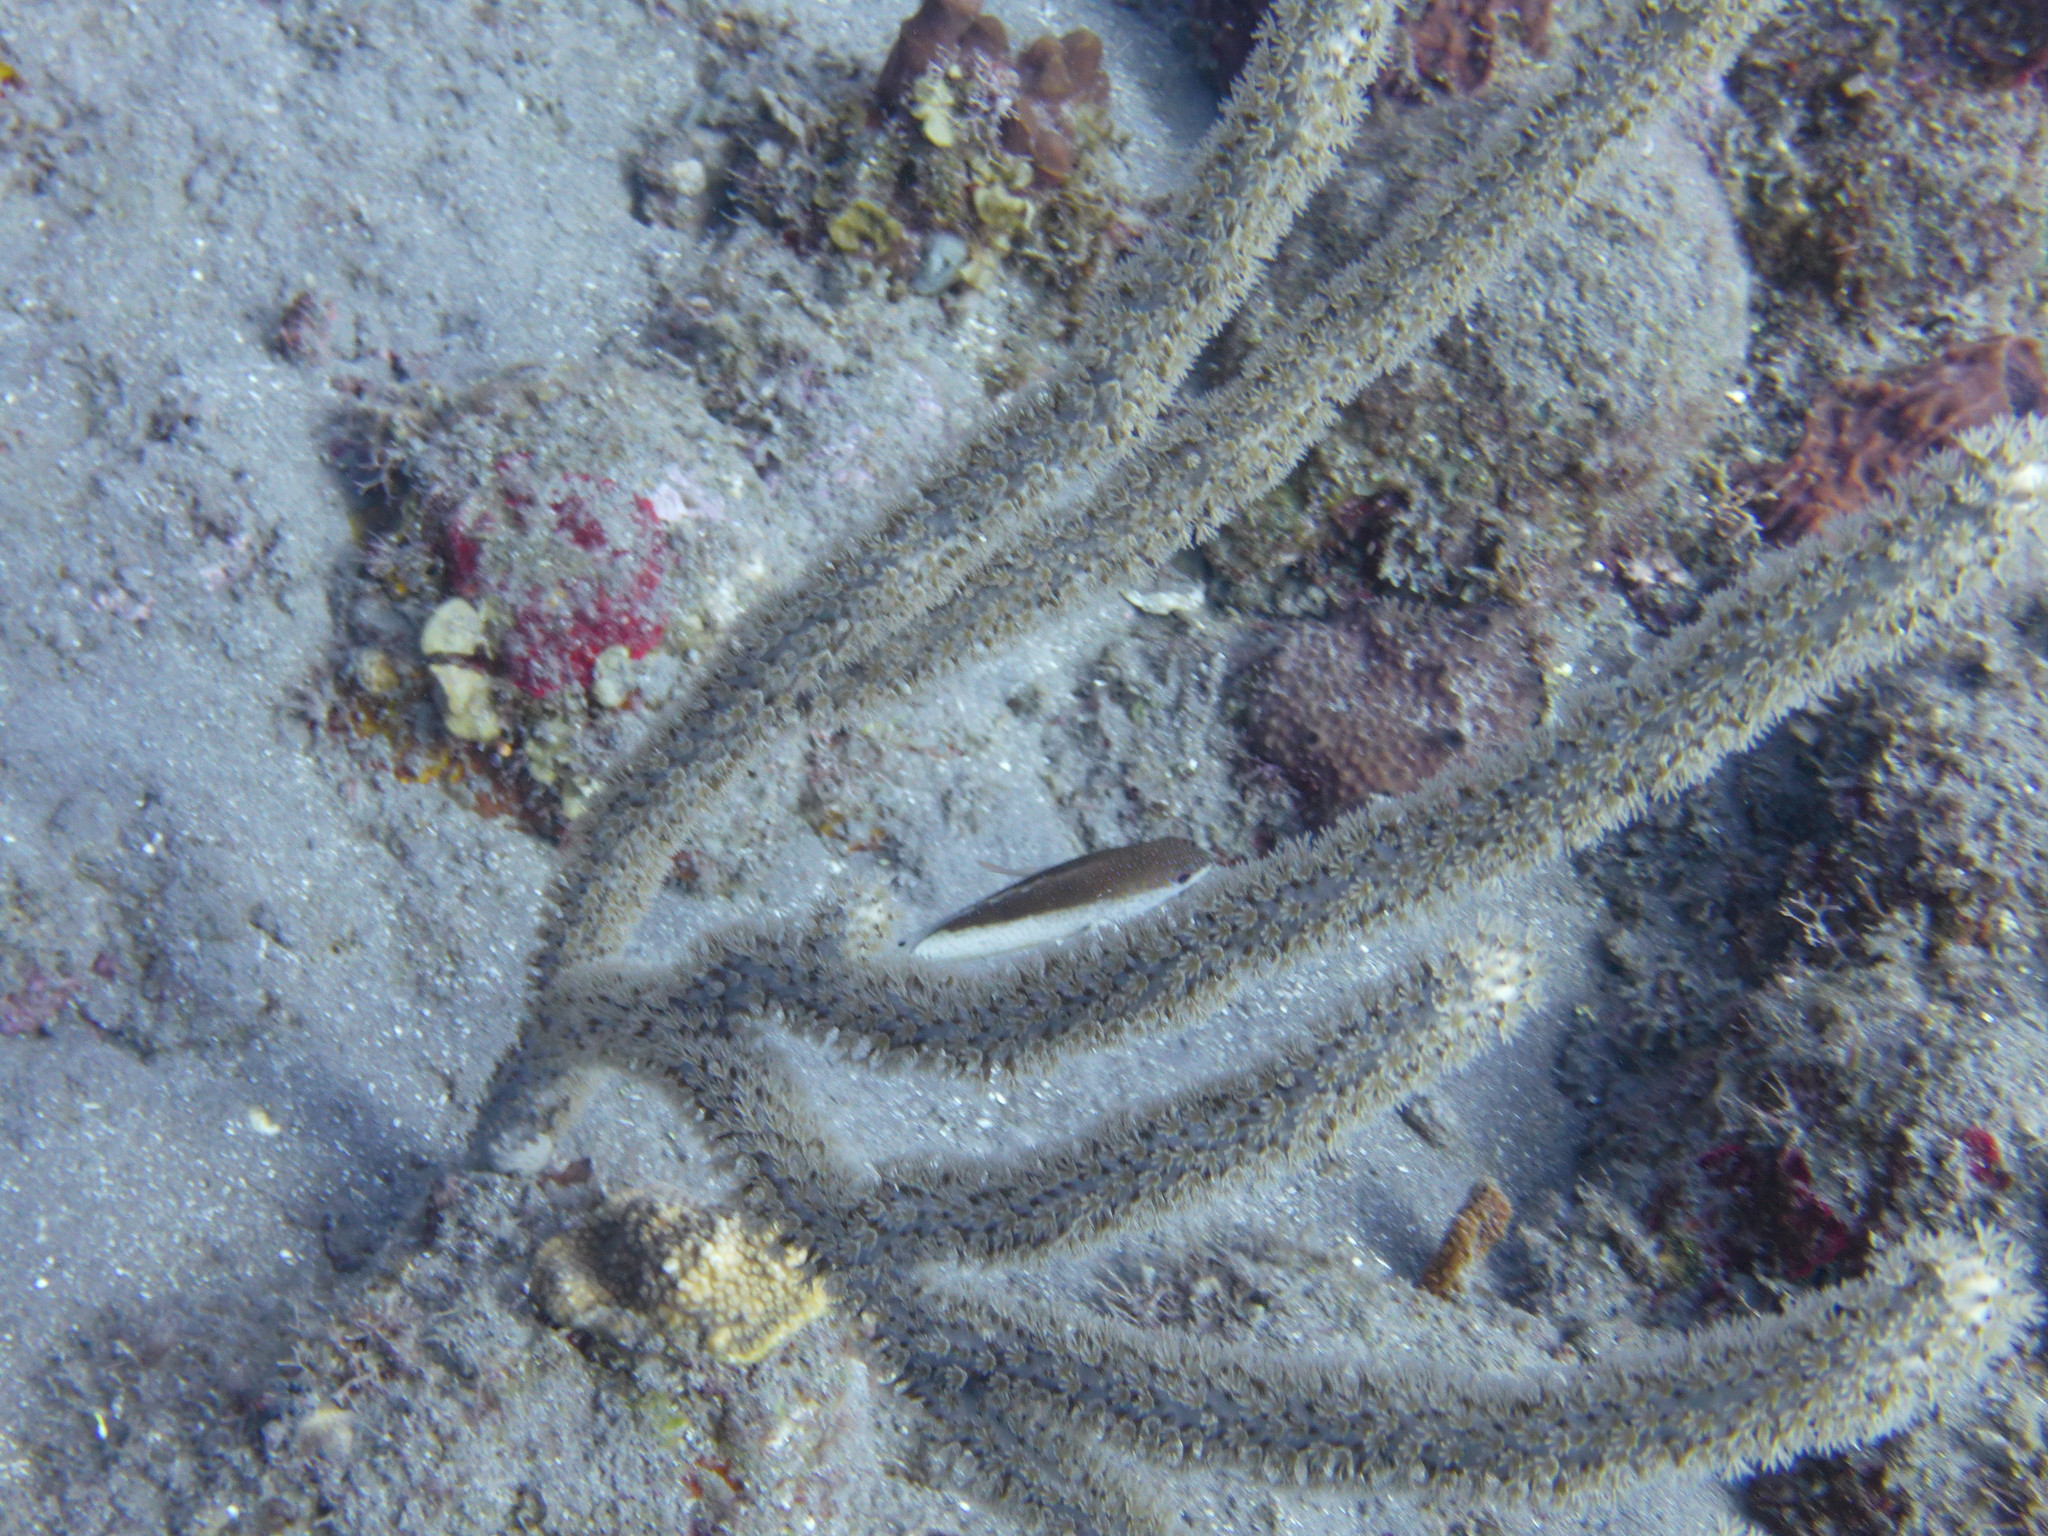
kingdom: Animalia
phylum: Chordata
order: Perciformes
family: Serranidae
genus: Cephalopholis
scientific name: Cephalopholis fulva
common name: Butterfish
